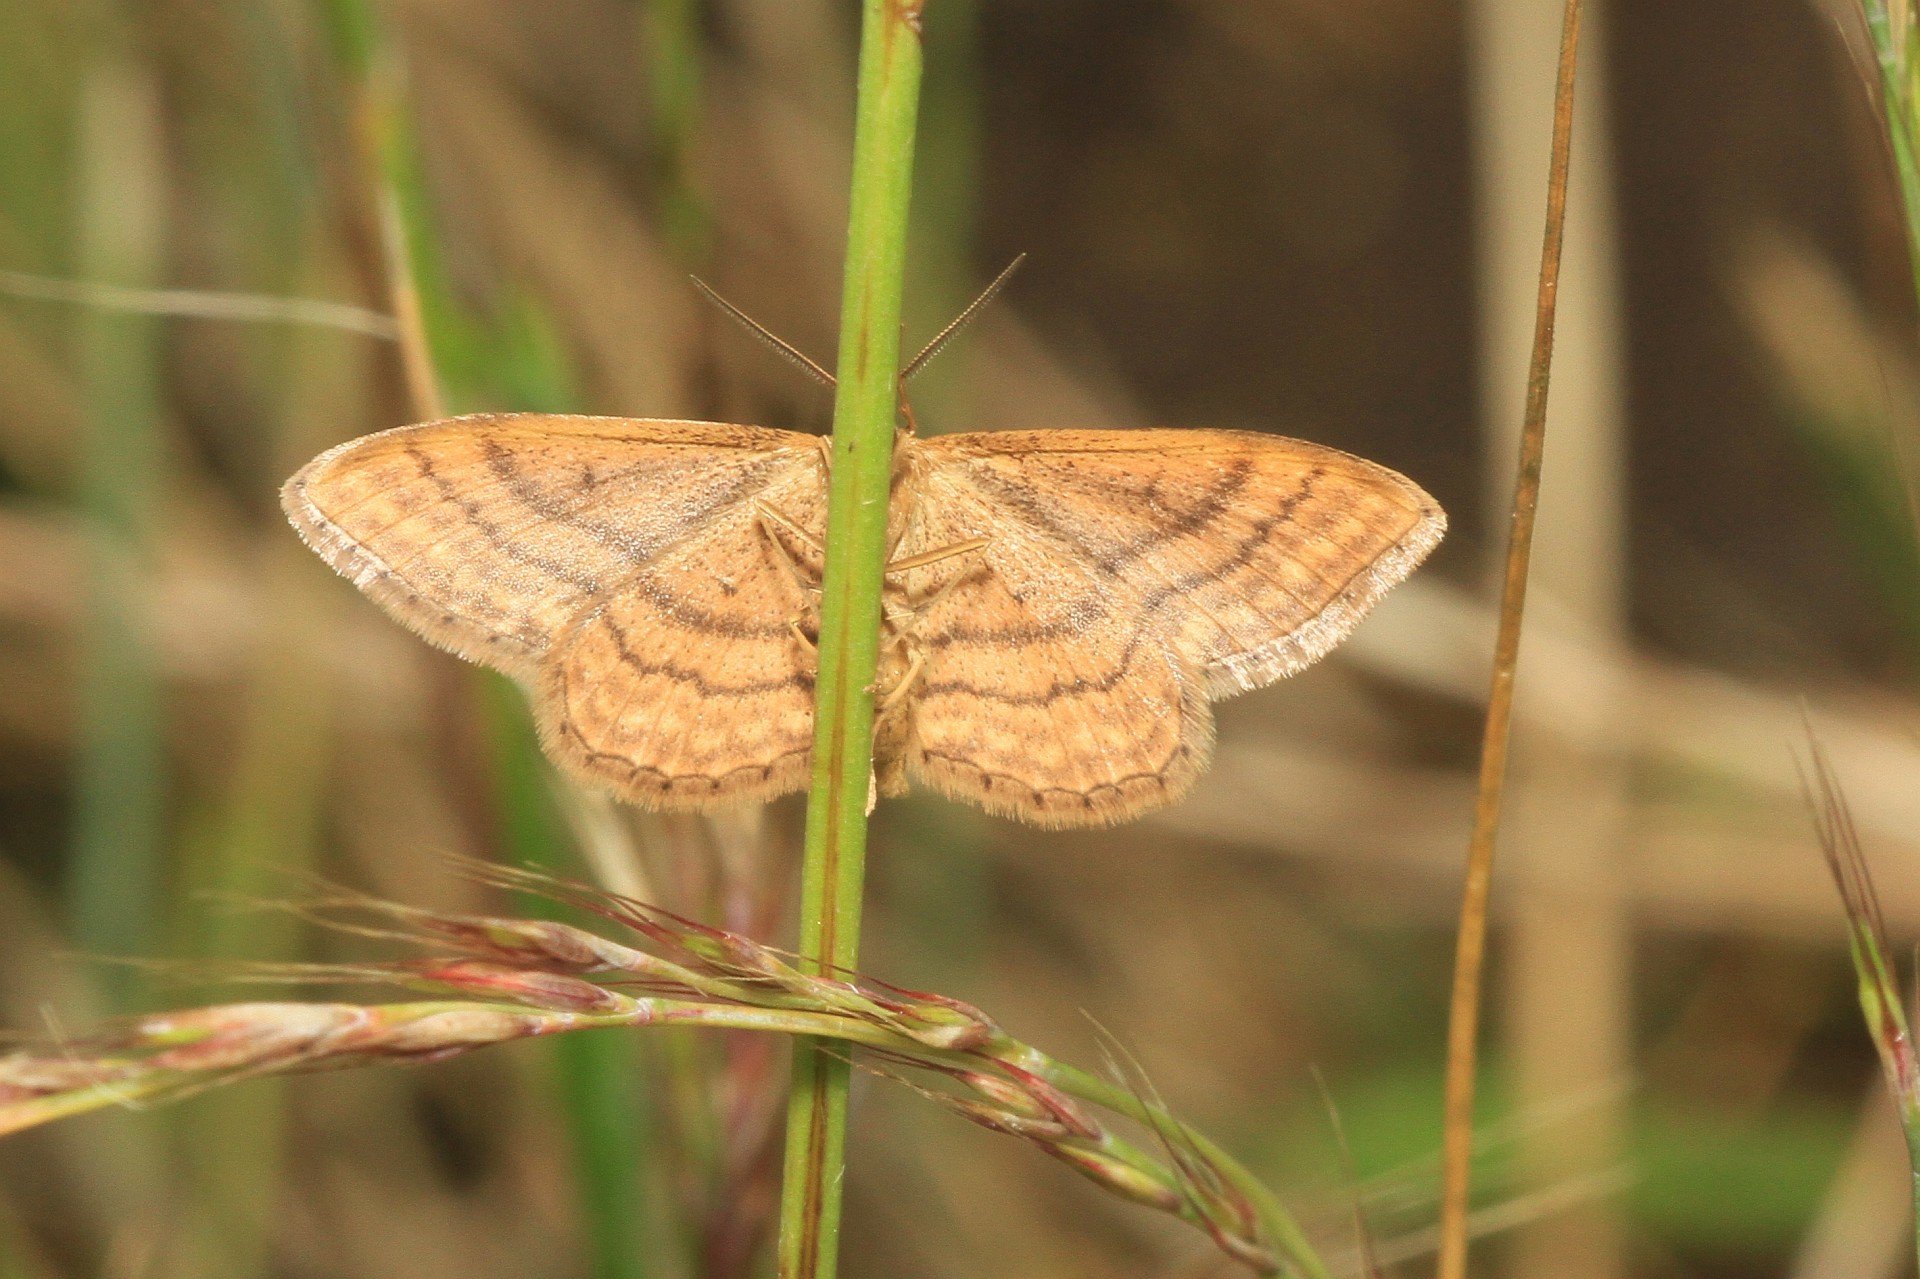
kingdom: Animalia
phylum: Arthropoda
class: Insecta
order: Lepidoptera
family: Geometridae
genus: Idaea
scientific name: Idaea ochrata
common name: Bright wave
